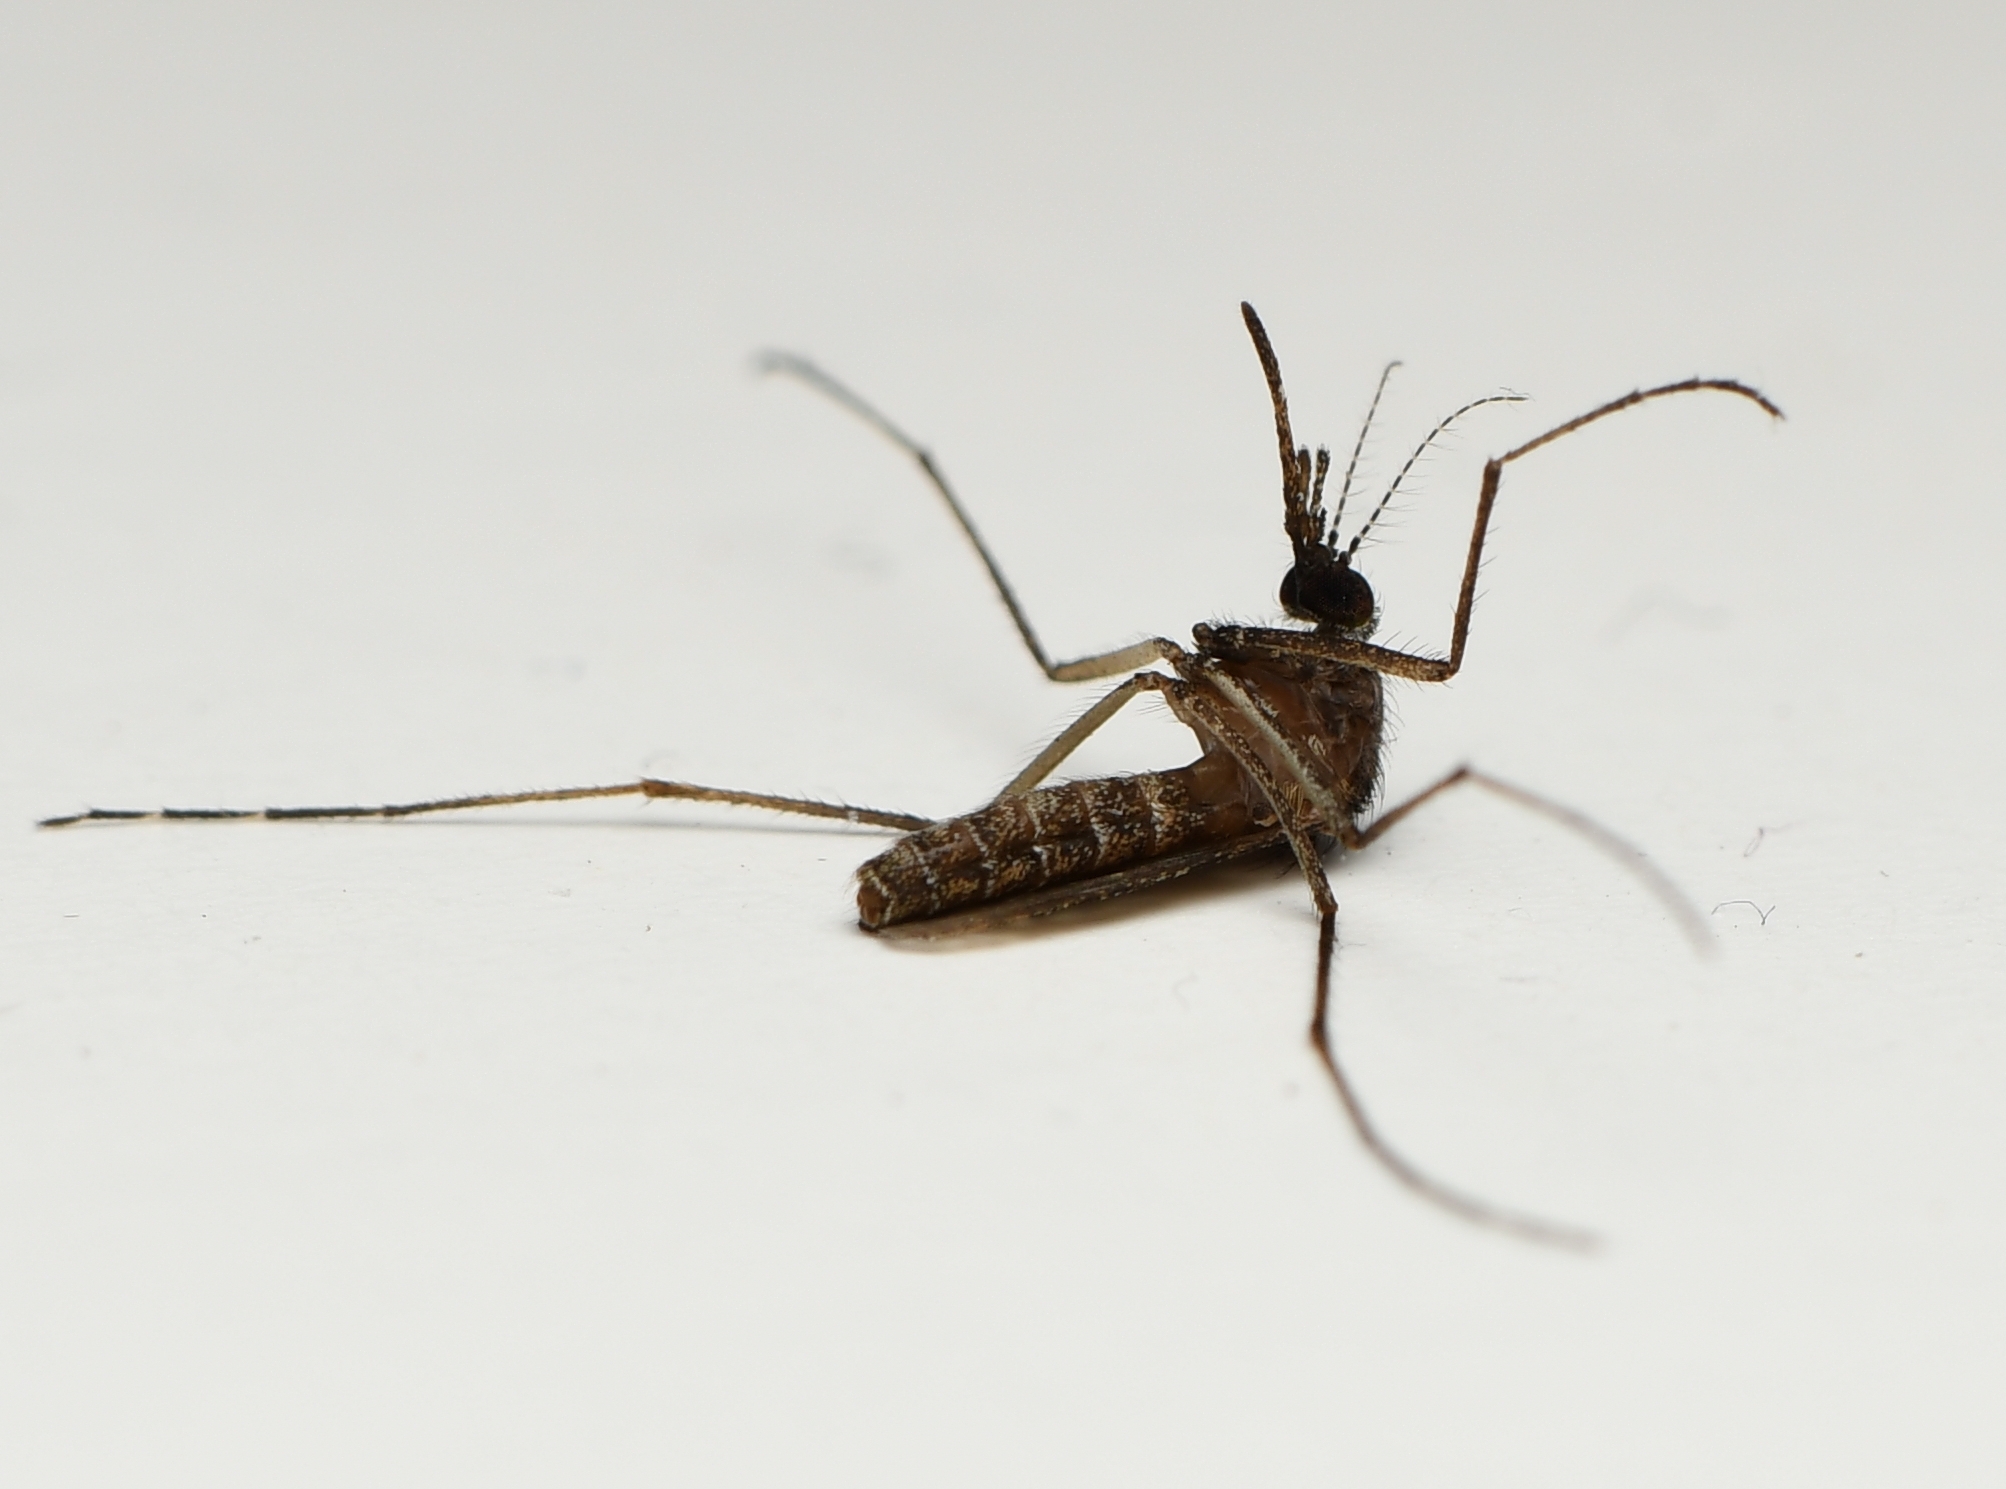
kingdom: Animalia
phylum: Arthropoda
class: Insecta
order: Diptera
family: Culicidae
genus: Mansonia
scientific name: Mansonia titillans
